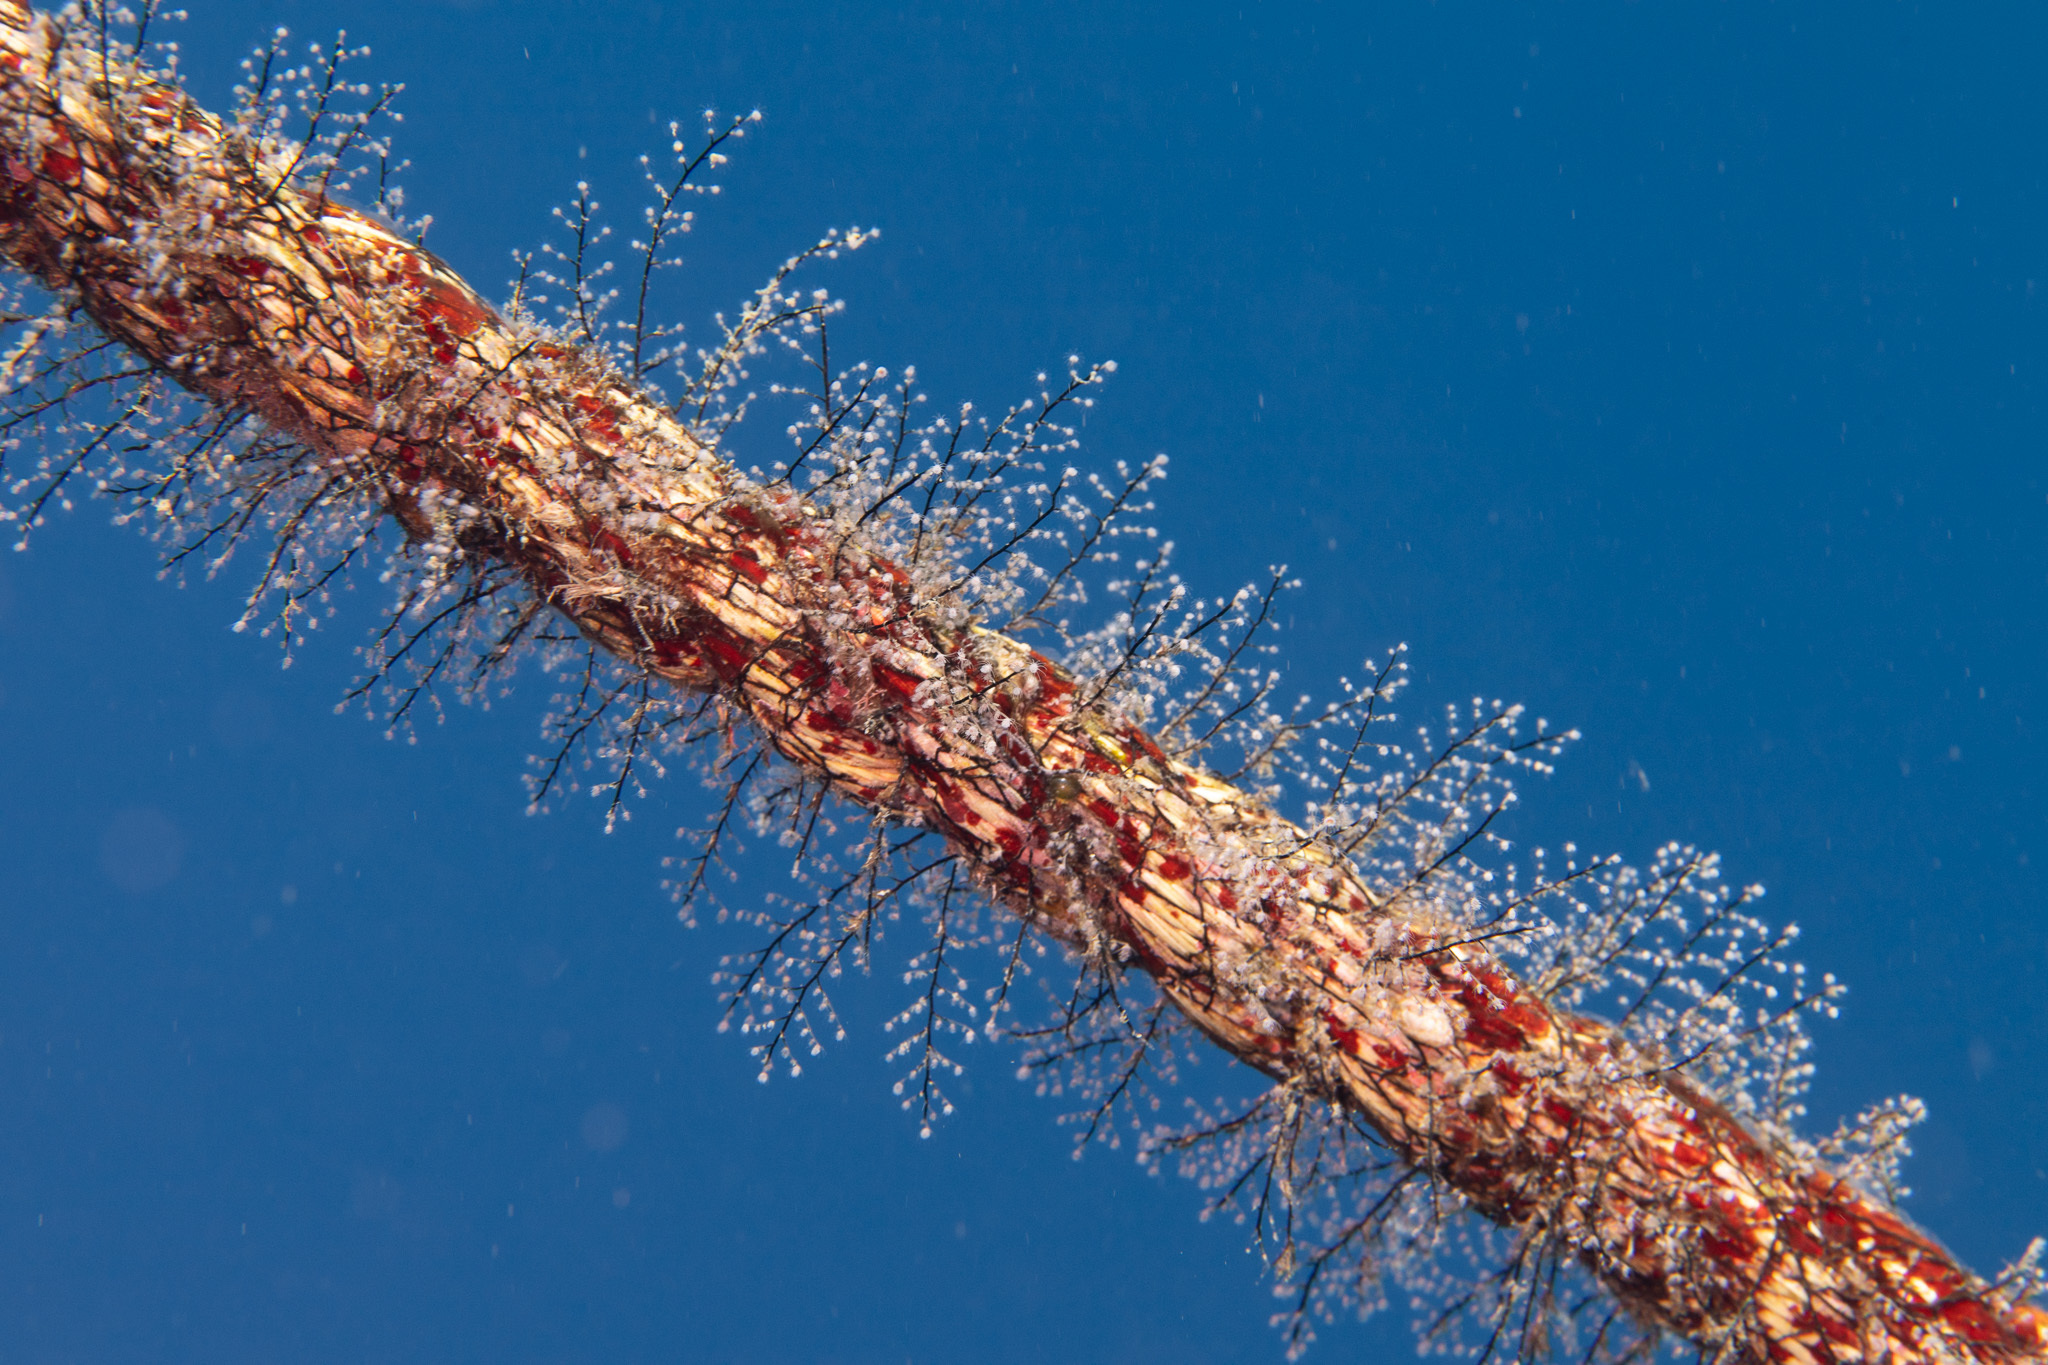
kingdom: Animalia
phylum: Cnidaria
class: Hydrozoa
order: Anthoathecata
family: Pennariidae
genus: Pennaria
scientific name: Pennaria disticha
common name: Feather hydroid
